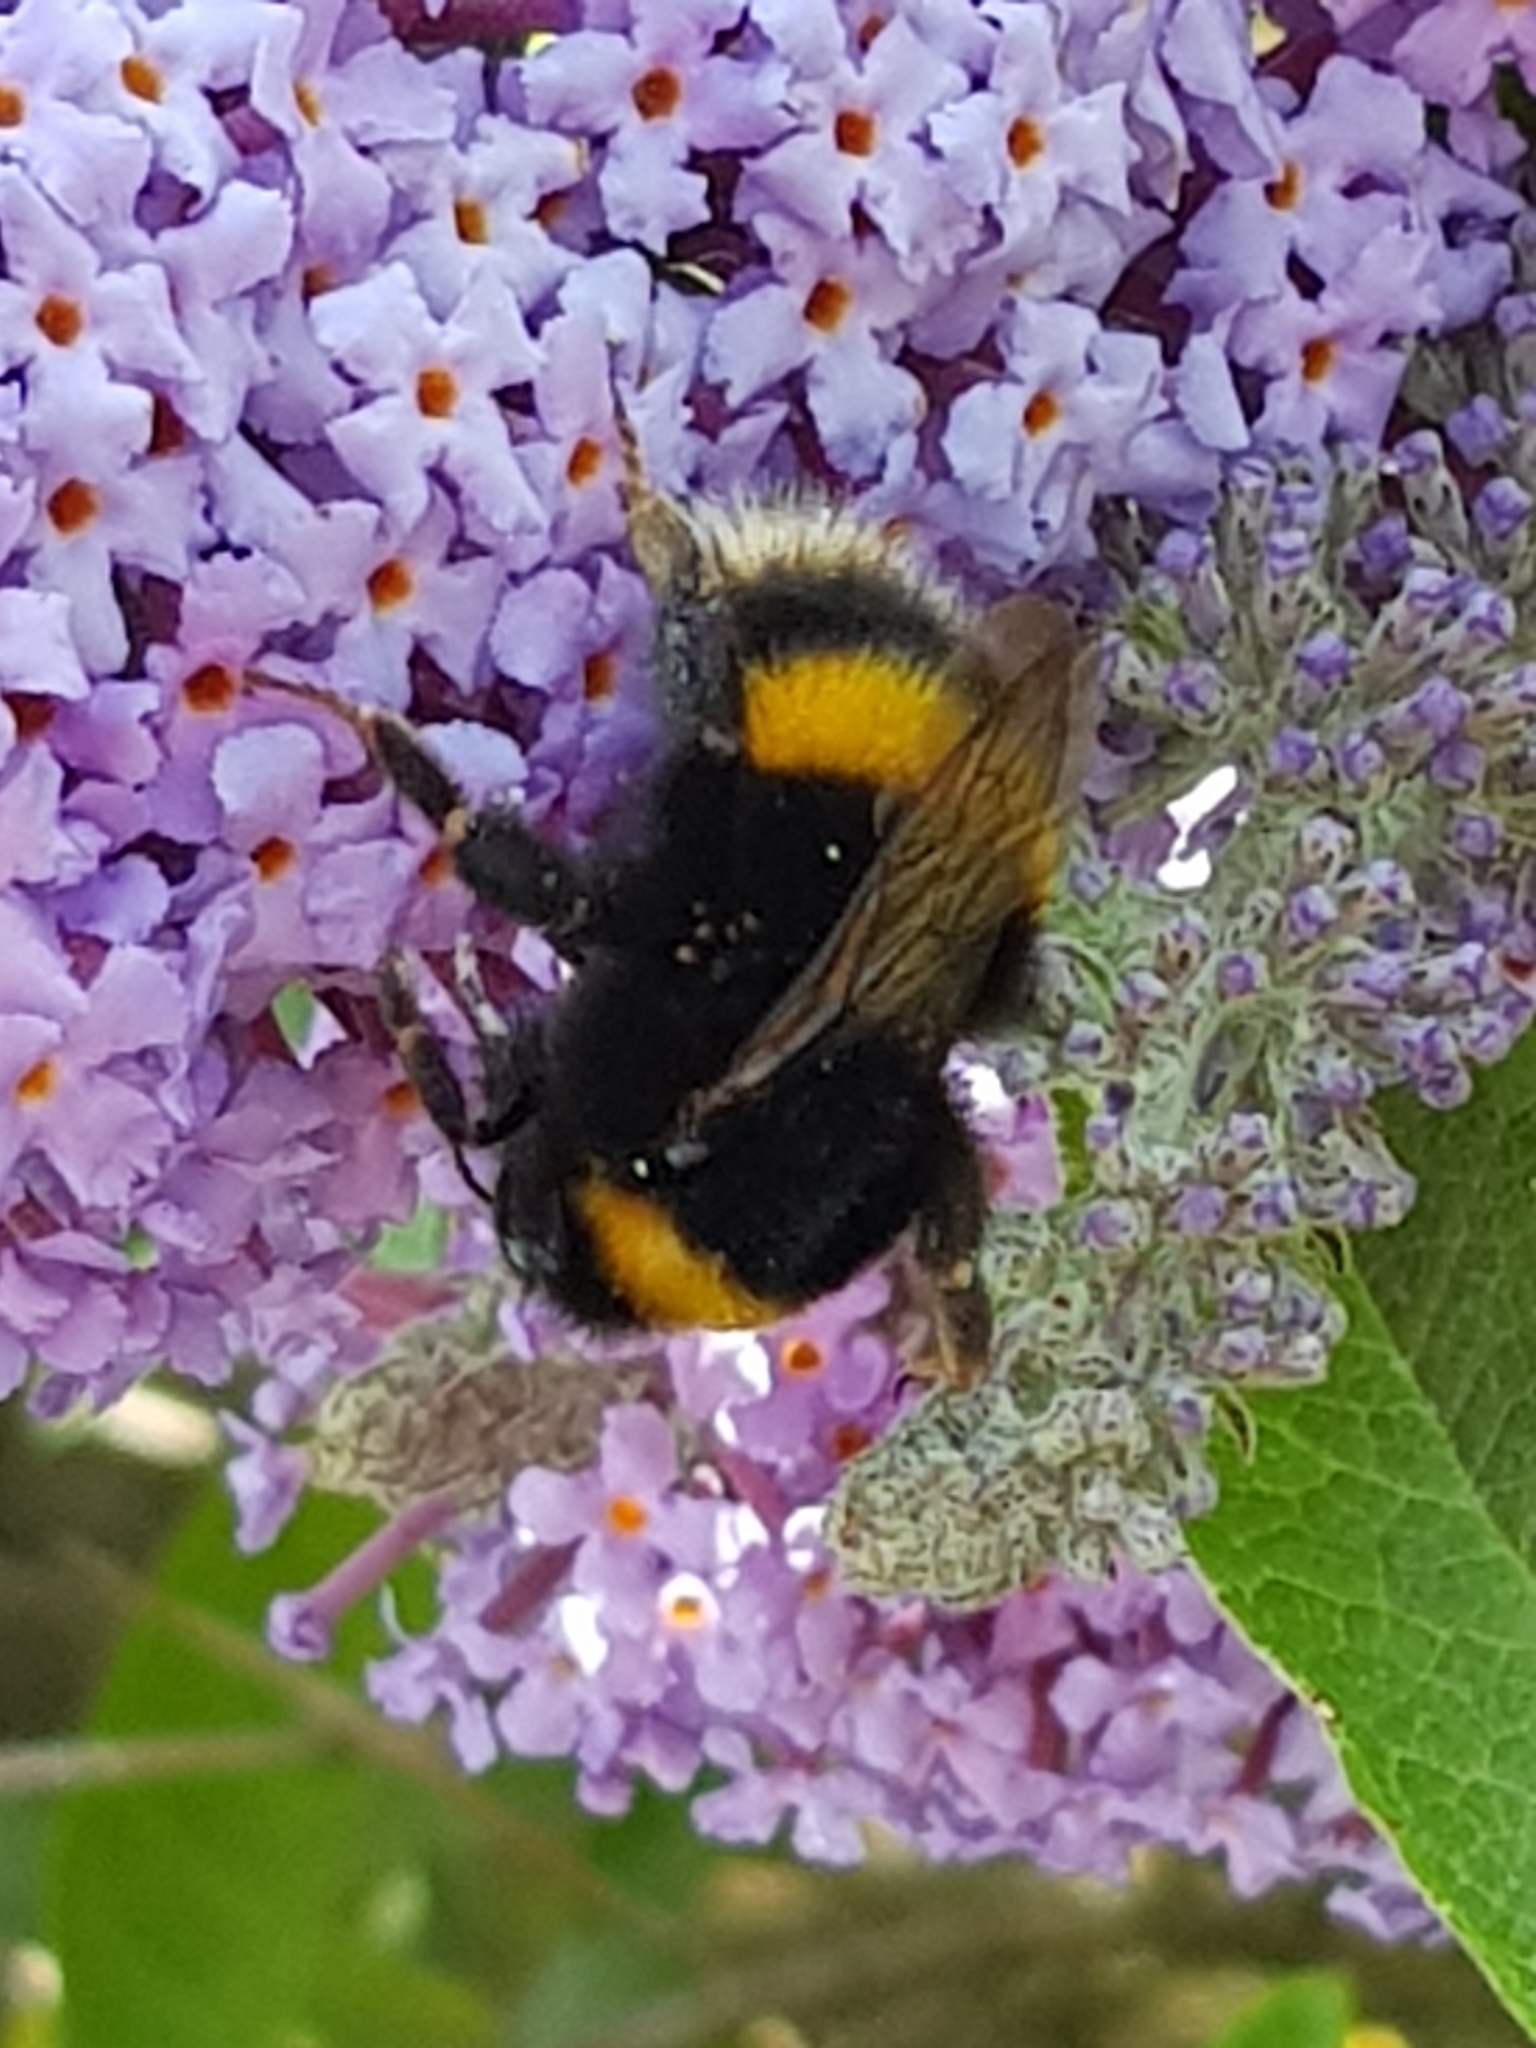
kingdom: Animalia
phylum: Arthropoda
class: Insecta
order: Hymenoptera
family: Apidae
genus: Bombus
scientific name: Bombus terrestris
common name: Buff-tailed bumblebee
